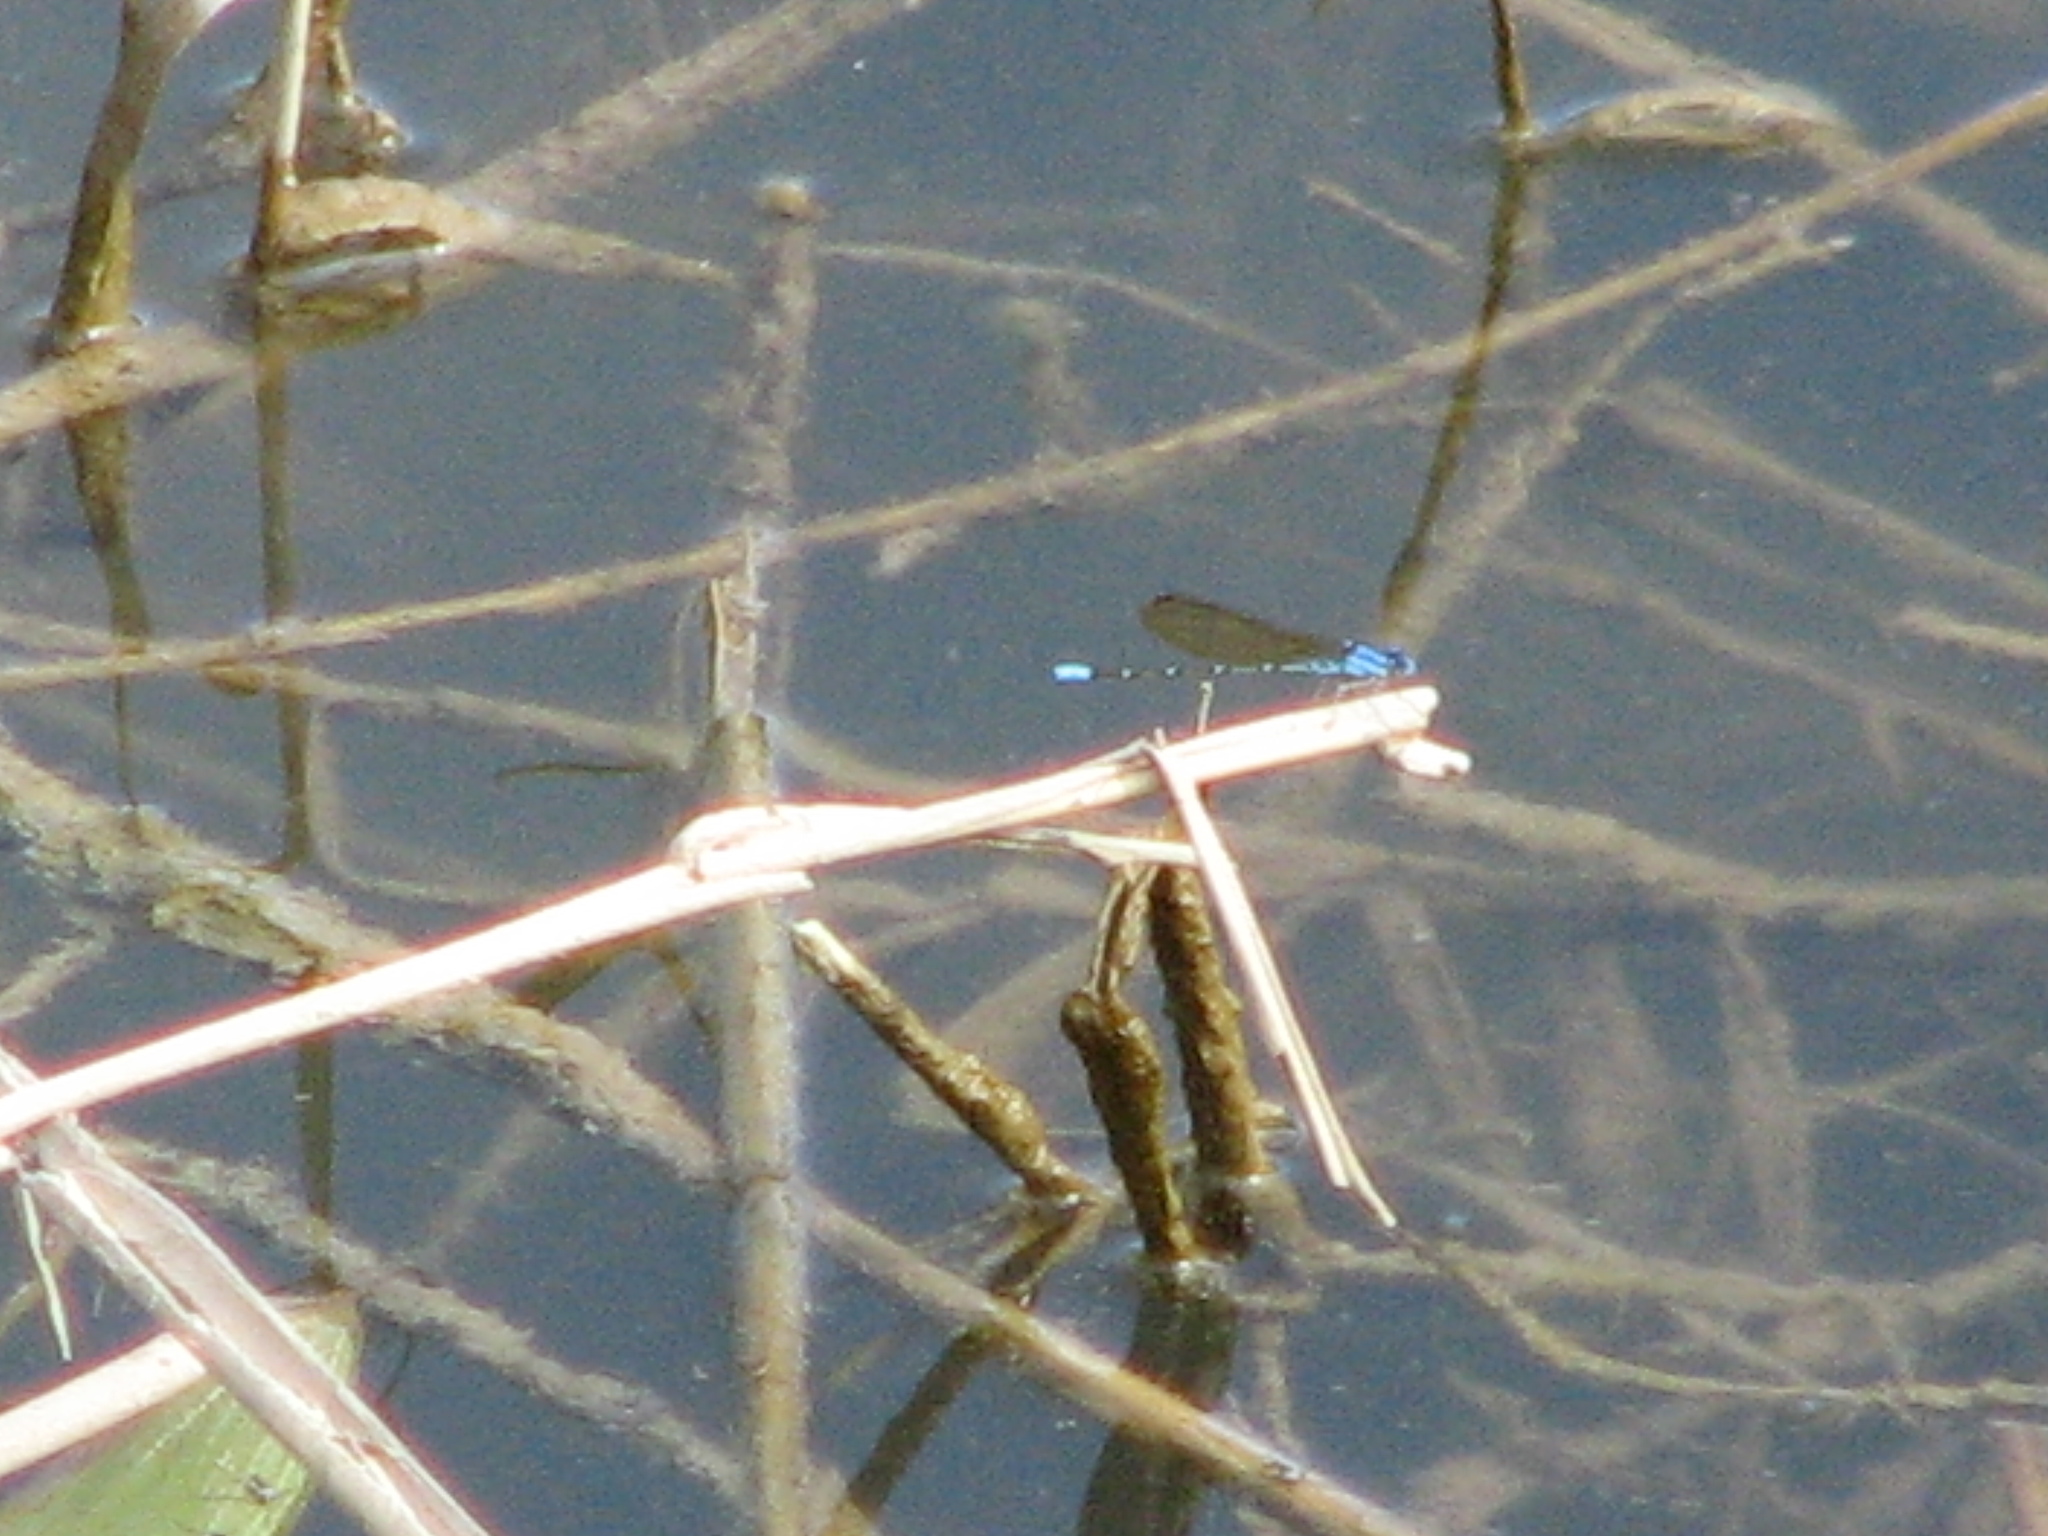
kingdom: Animalia
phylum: Arthropoda
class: Insecta
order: Odonata
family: Coenagrionidae
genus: Argia
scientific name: Argia rhoadsi
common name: Golden-winged dancer
